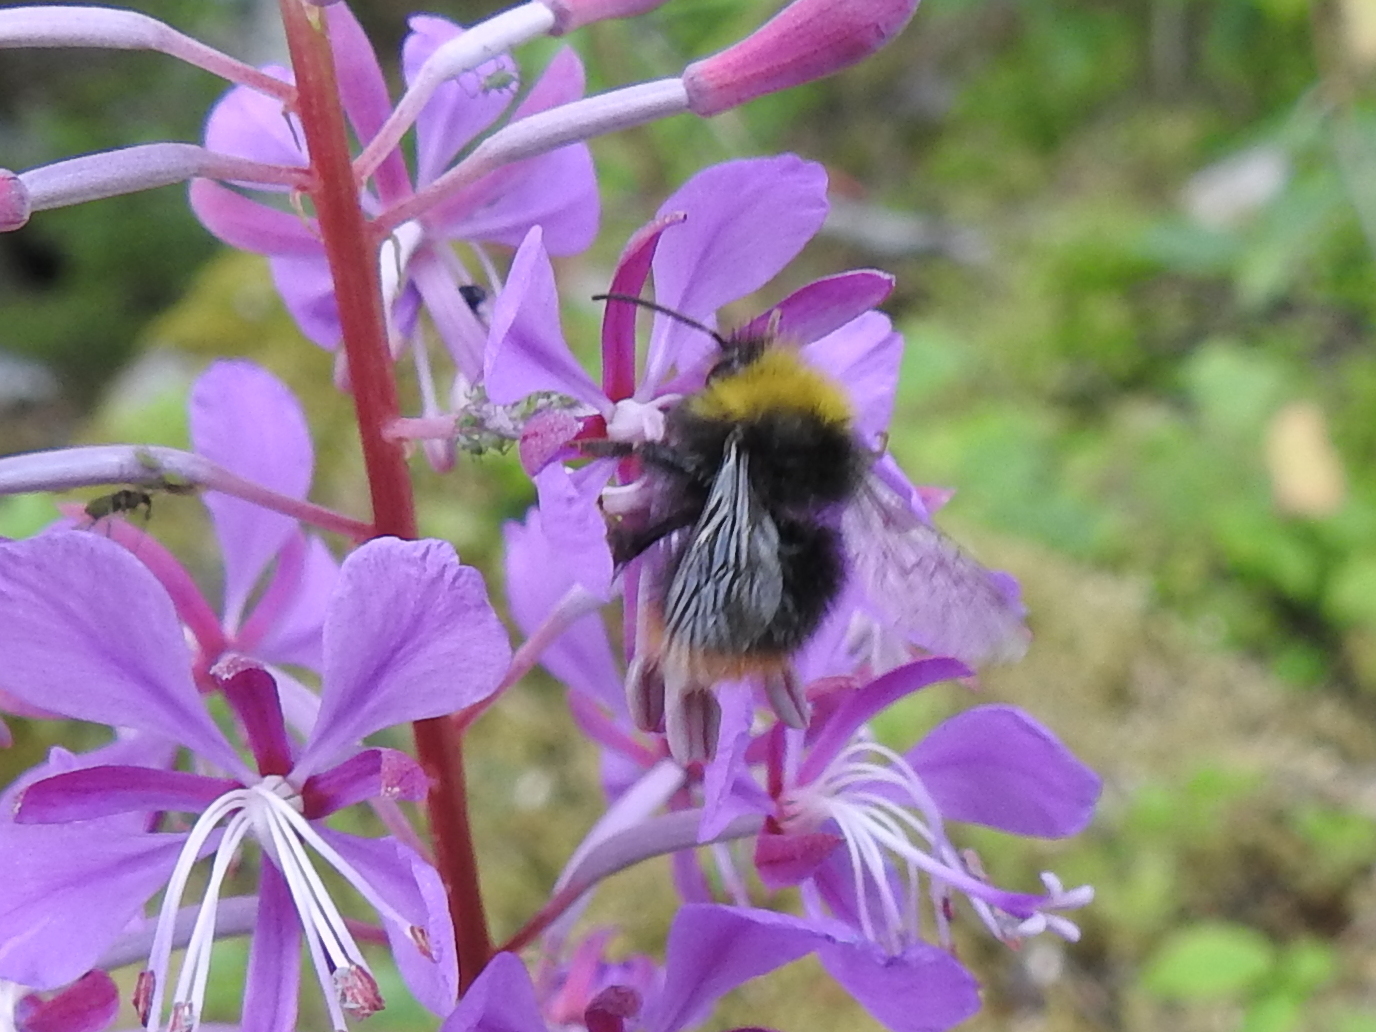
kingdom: Animalia
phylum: Arthropoda
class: Insecta
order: Hymenoptera
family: Apidae
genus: Bombus
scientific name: Bombus pratorum
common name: Early humble-bee
